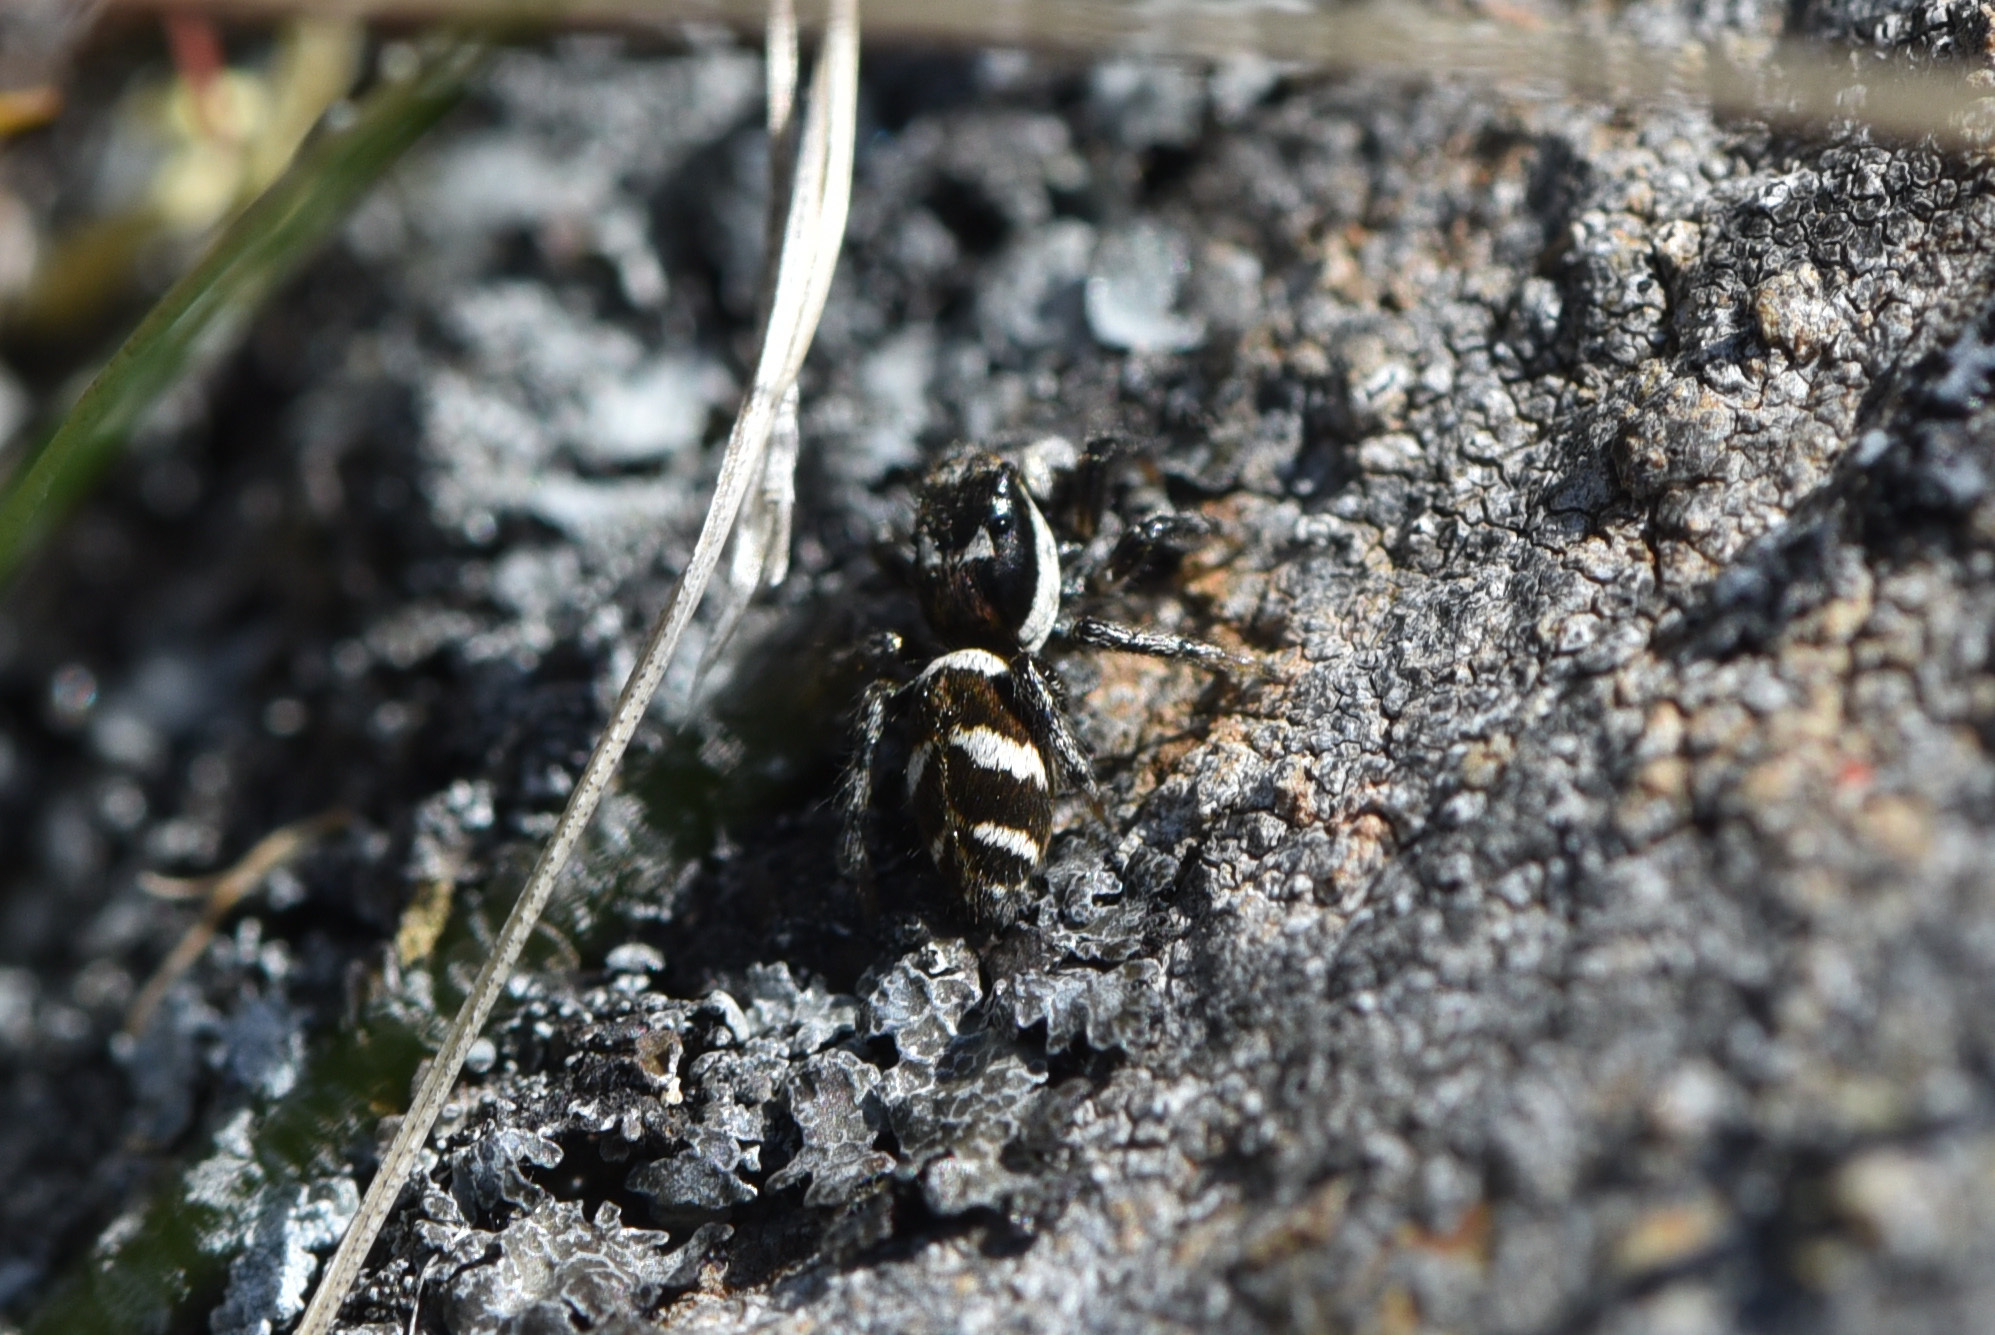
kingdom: Animalia
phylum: Arthropoda
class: Arachnida
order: Araneae
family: Salticidae
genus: Salticus
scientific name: Salticus scenicus
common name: Zebra jumper
